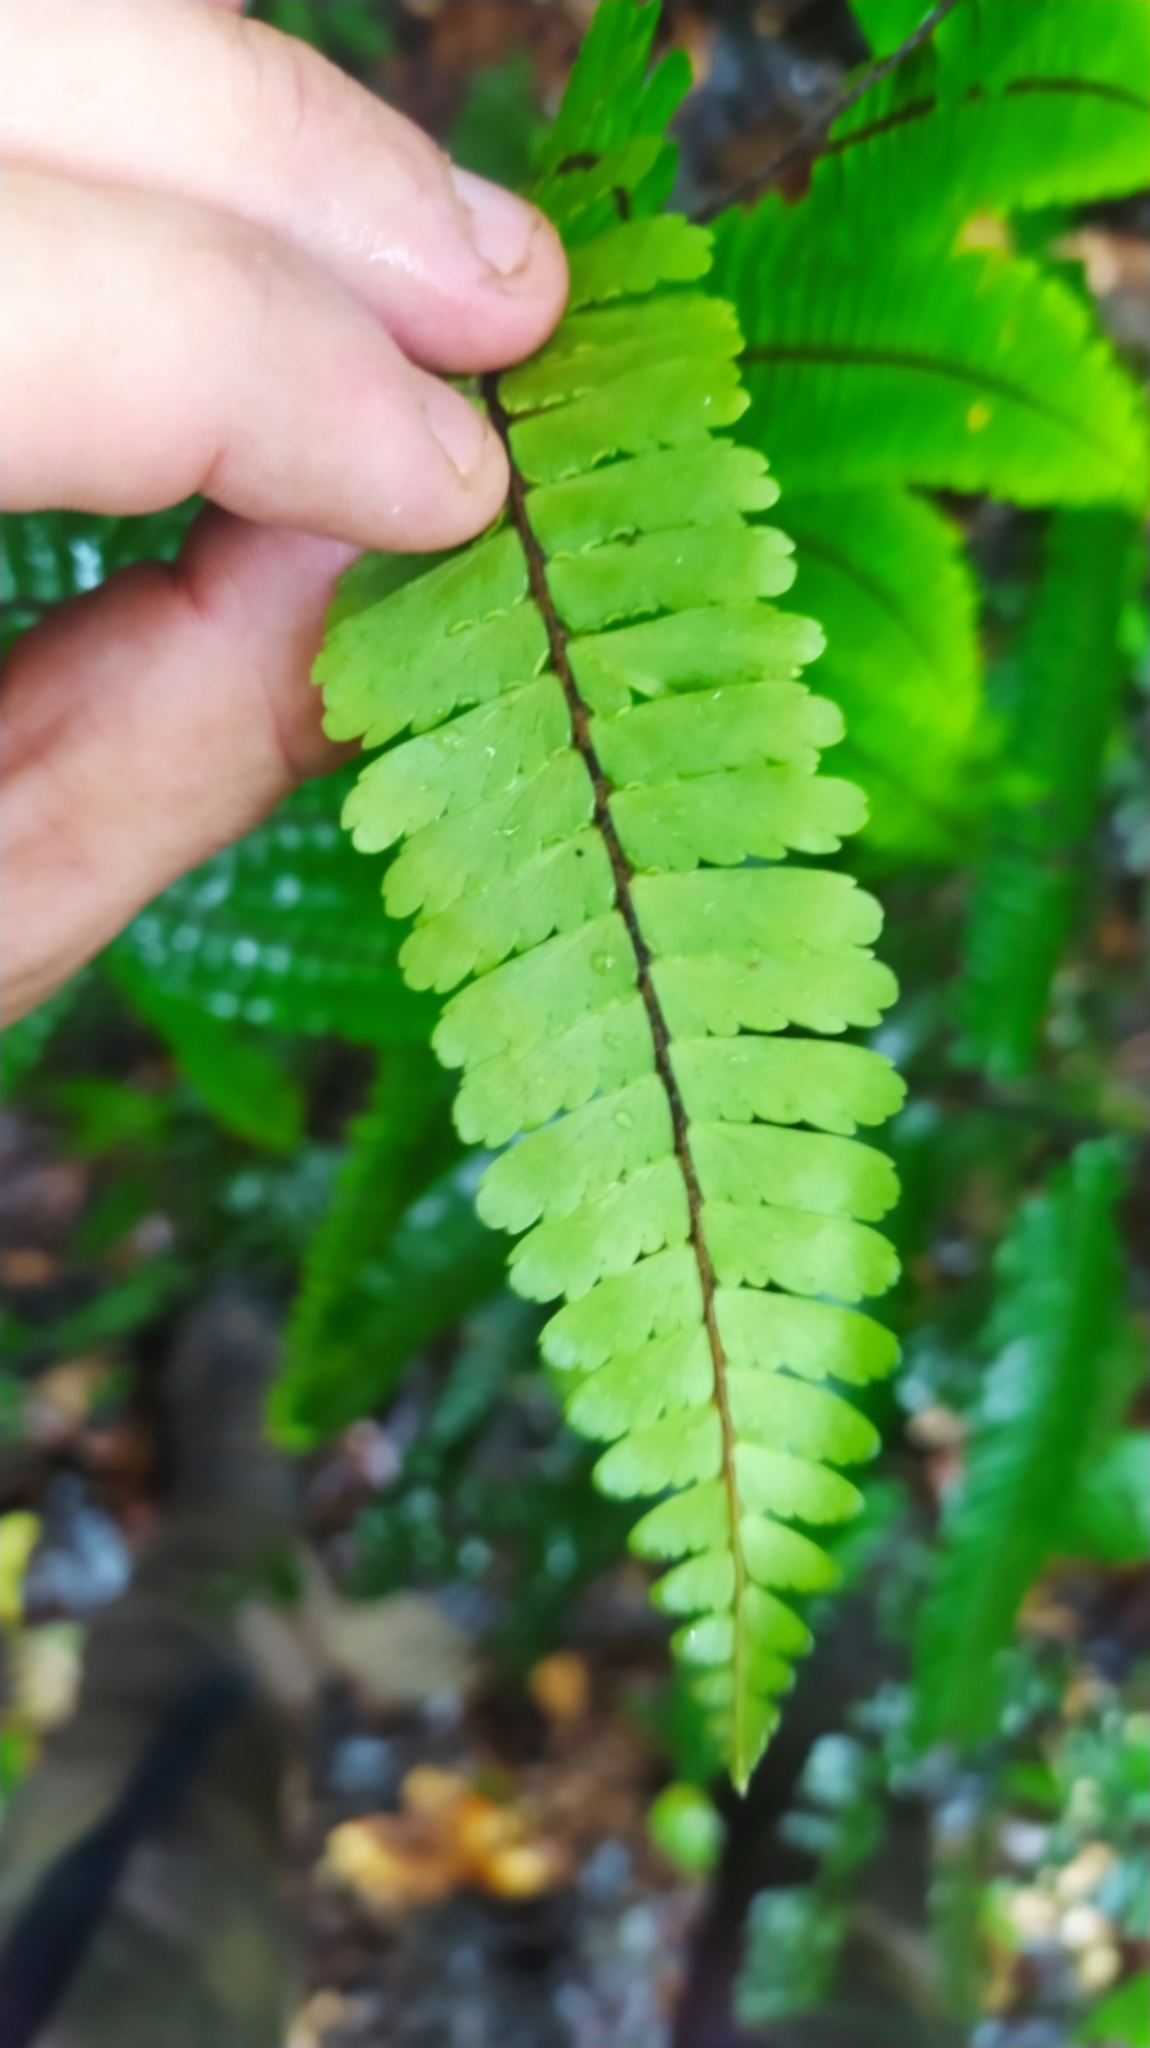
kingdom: Plantae
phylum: Tracheophyta
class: Polypodiopsida
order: Polypodiales
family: Pteridaceae
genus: Adiantum
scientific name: Adiantum cajennense
